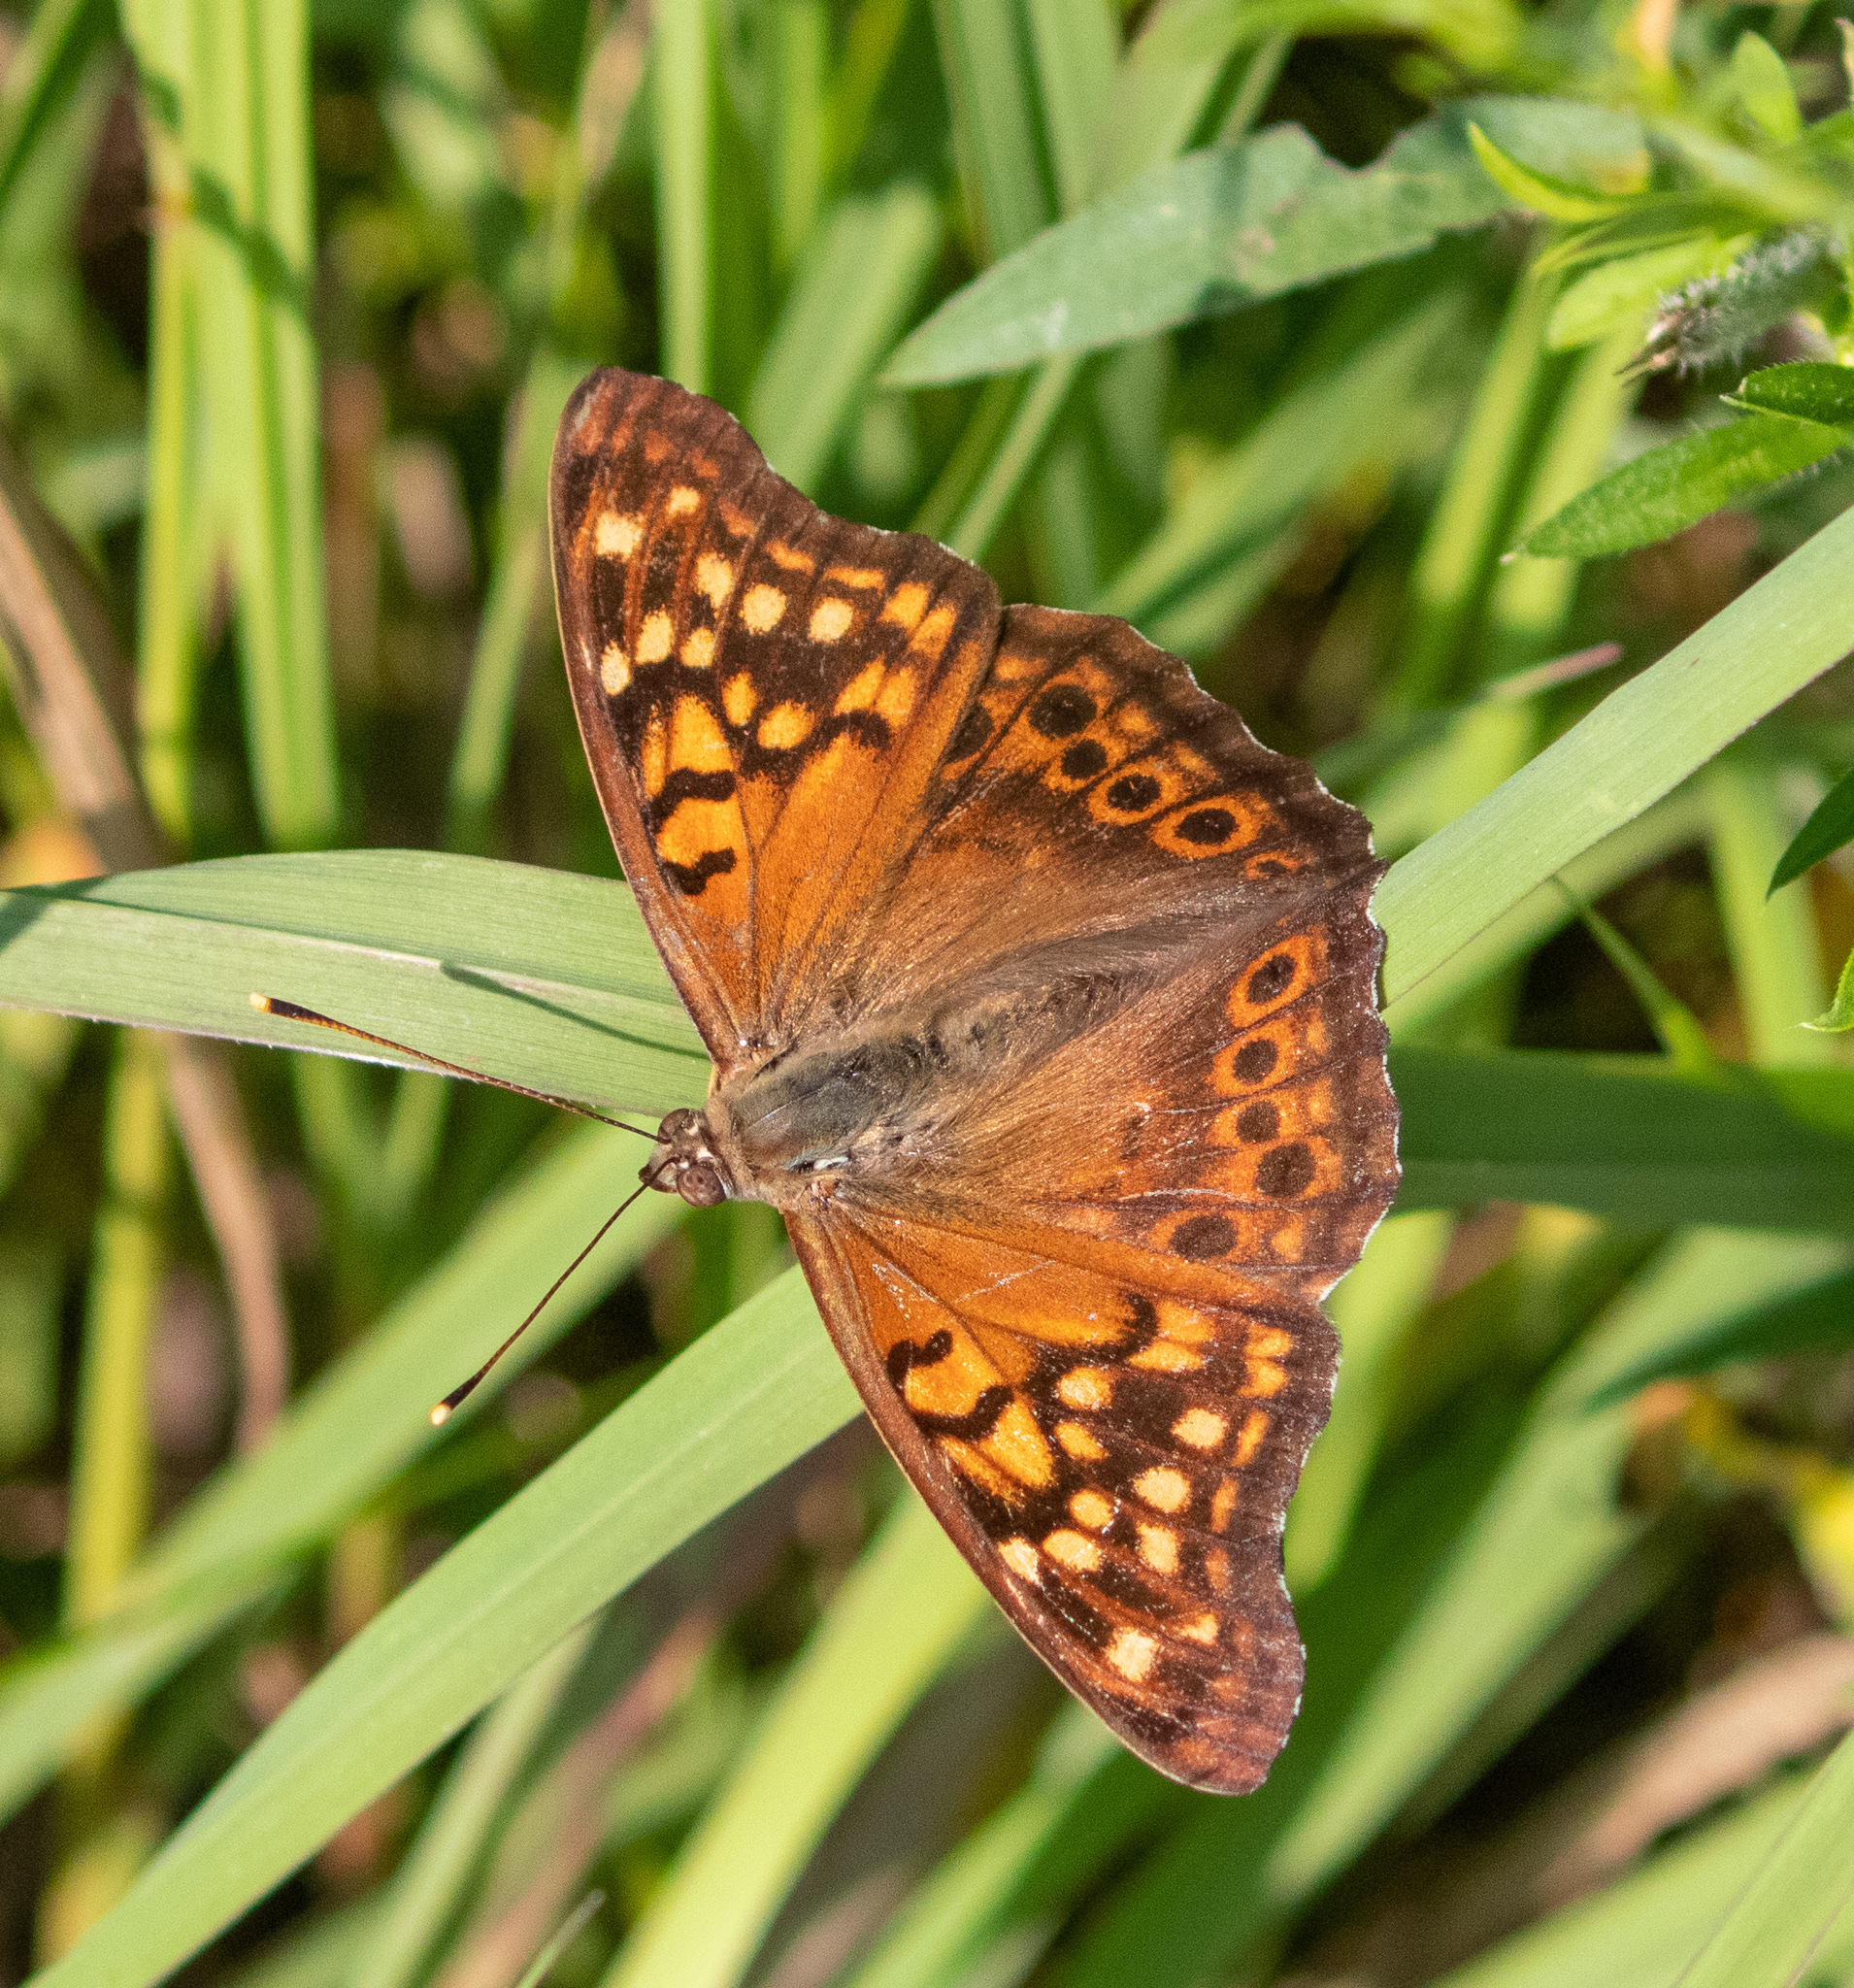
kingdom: Animalia
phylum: Arthropoda
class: Insecta
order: Lepidoptera
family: Nymphalidae
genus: Asterocampa
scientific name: Asterocampa clyton
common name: Tawny emperor
